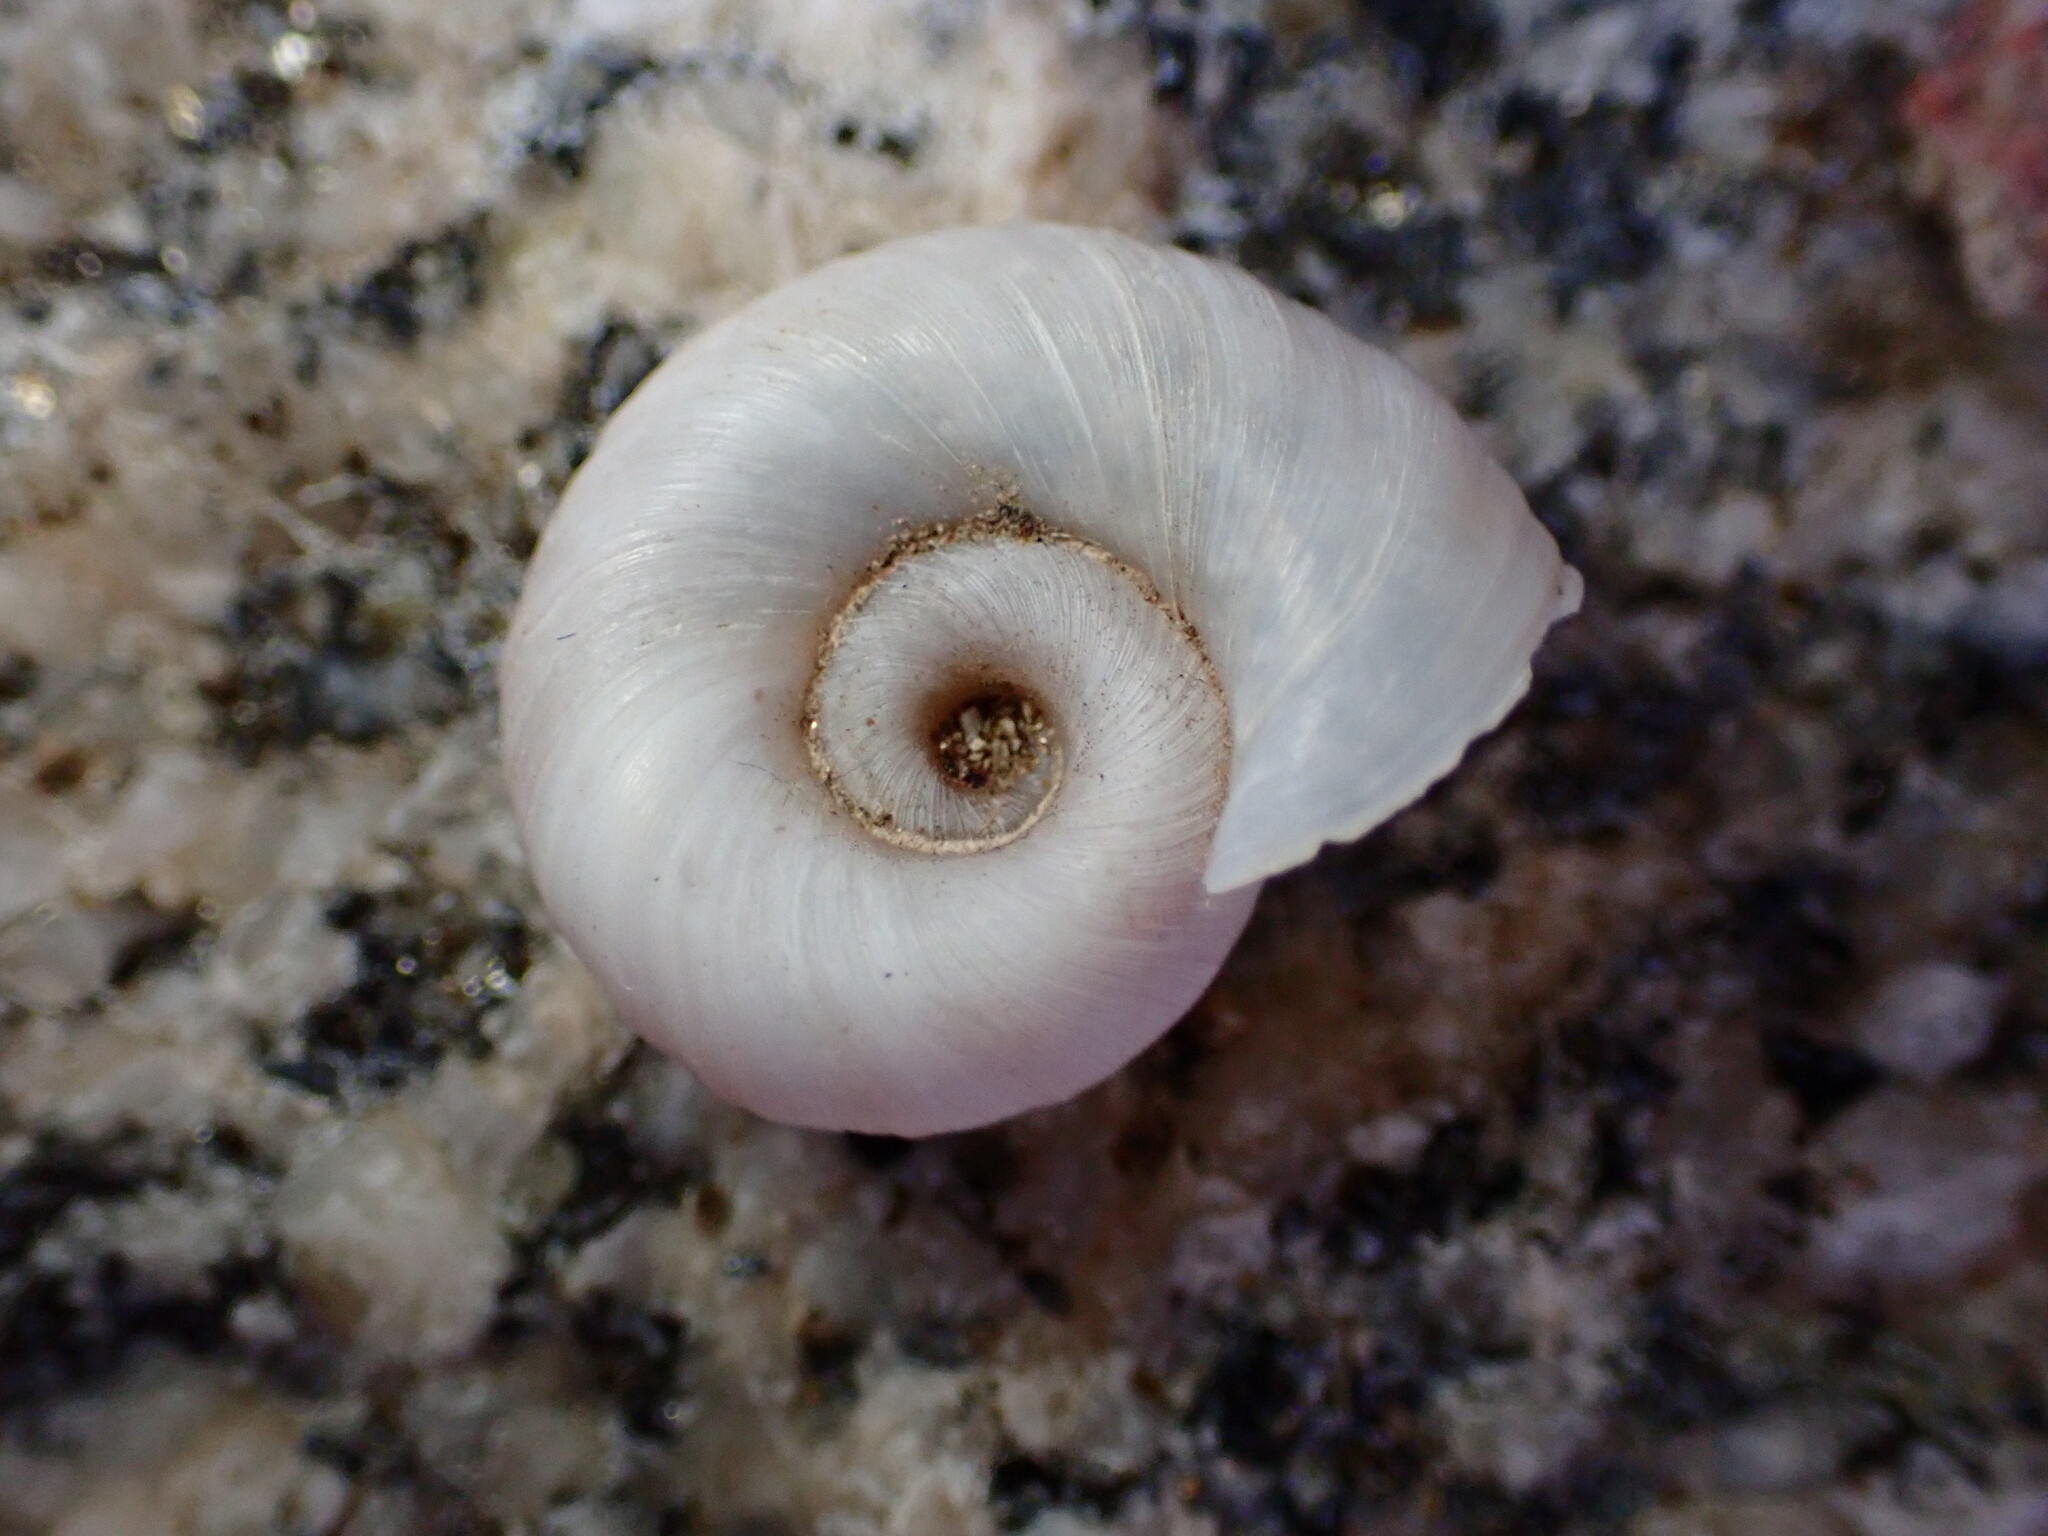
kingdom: Animalia
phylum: Mollusca
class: Gastropoda
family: Planorbidae
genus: Planorbella
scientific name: Planorbella trivolvis
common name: Marsh rams-horn
